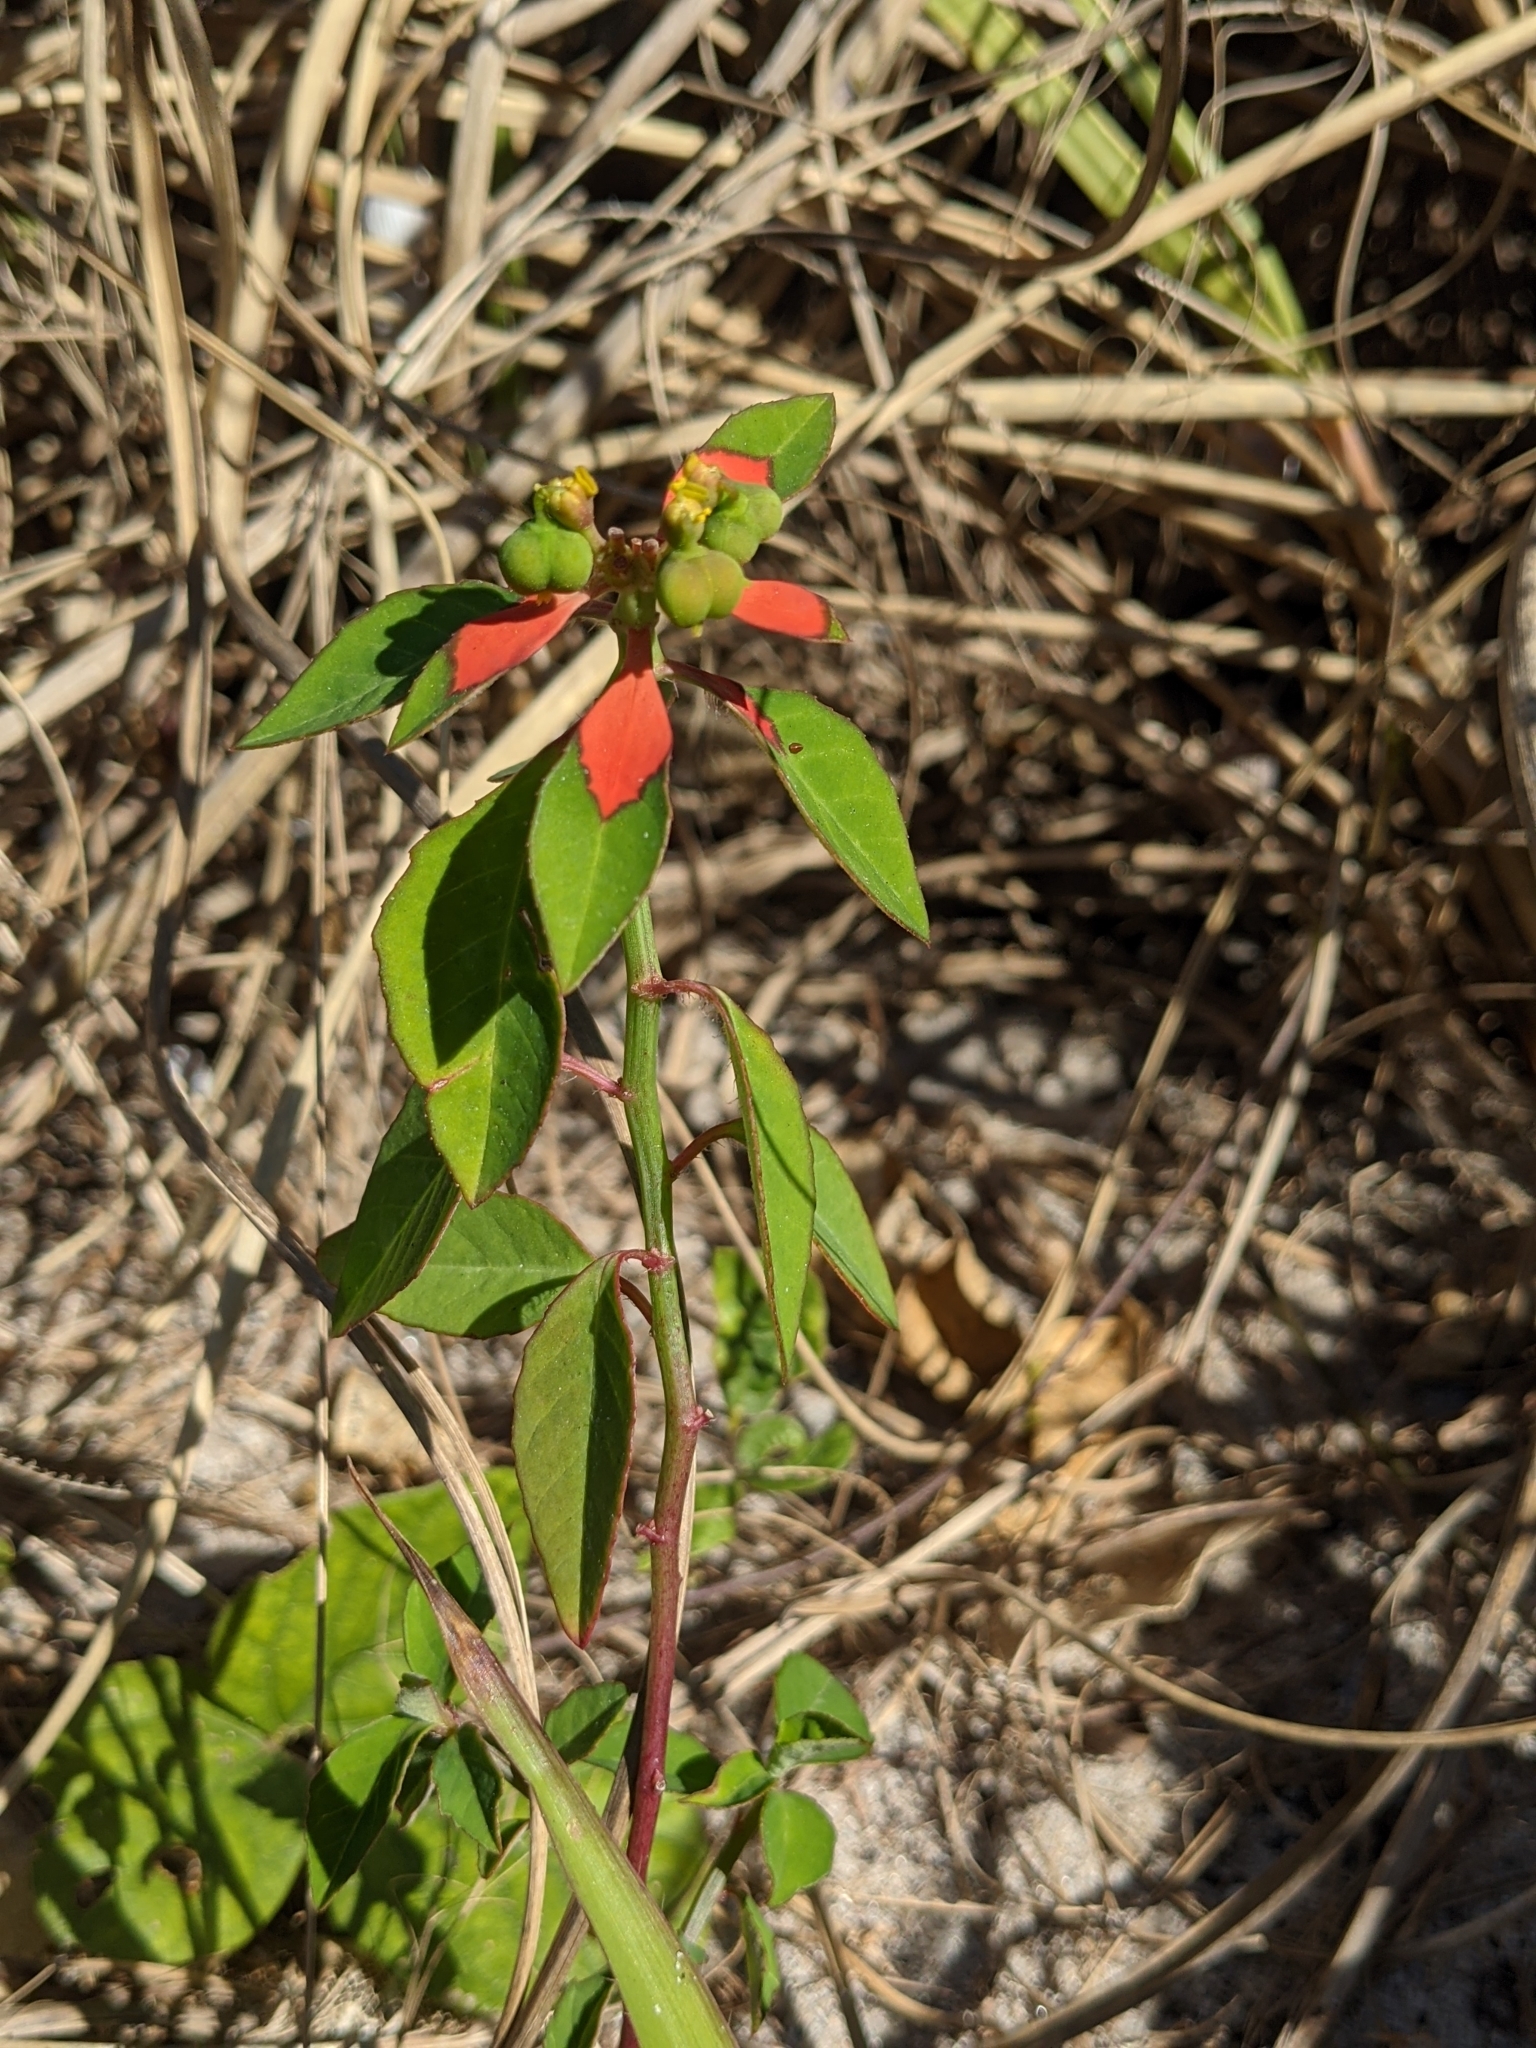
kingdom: Plantae
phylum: Tracheophyta
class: Magnoliopsida
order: Malpighiales
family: Euphorbiaceae
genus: Euphorbia
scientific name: Euphorbia heterophylla
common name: Mexican fireplant
